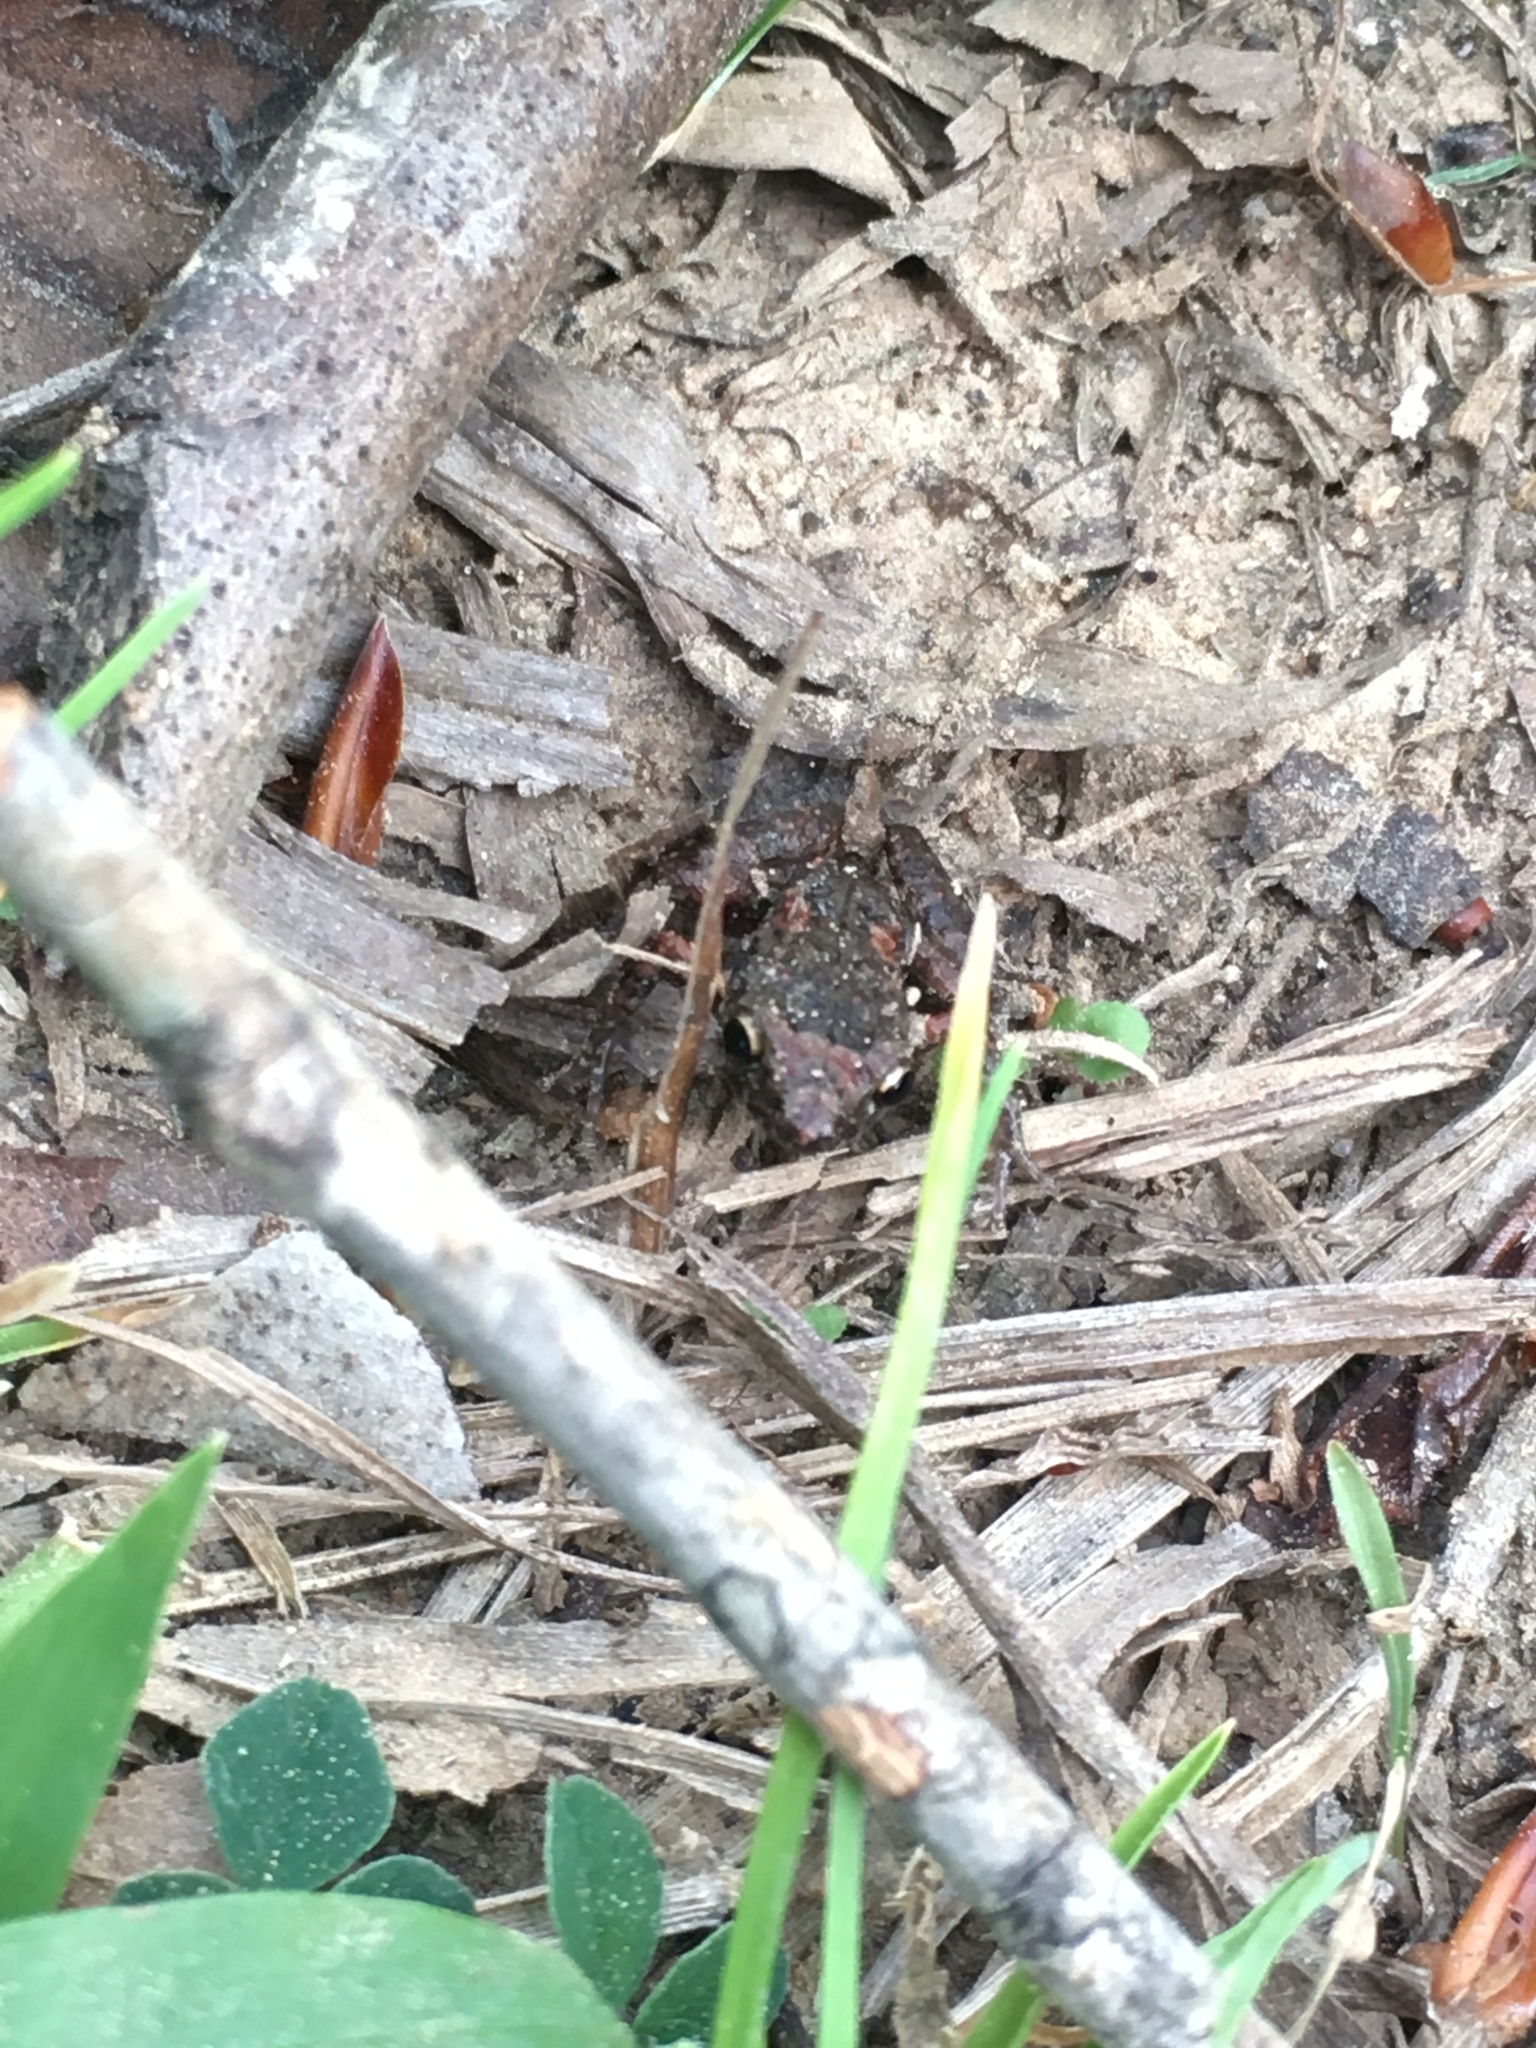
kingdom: Animalia
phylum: Chordata
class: Amphibia
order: Anura
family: Eleutherodactylidae
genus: Eleutherodactylus
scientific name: Eleutherodactylus planirostris
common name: Greenhouse frog
